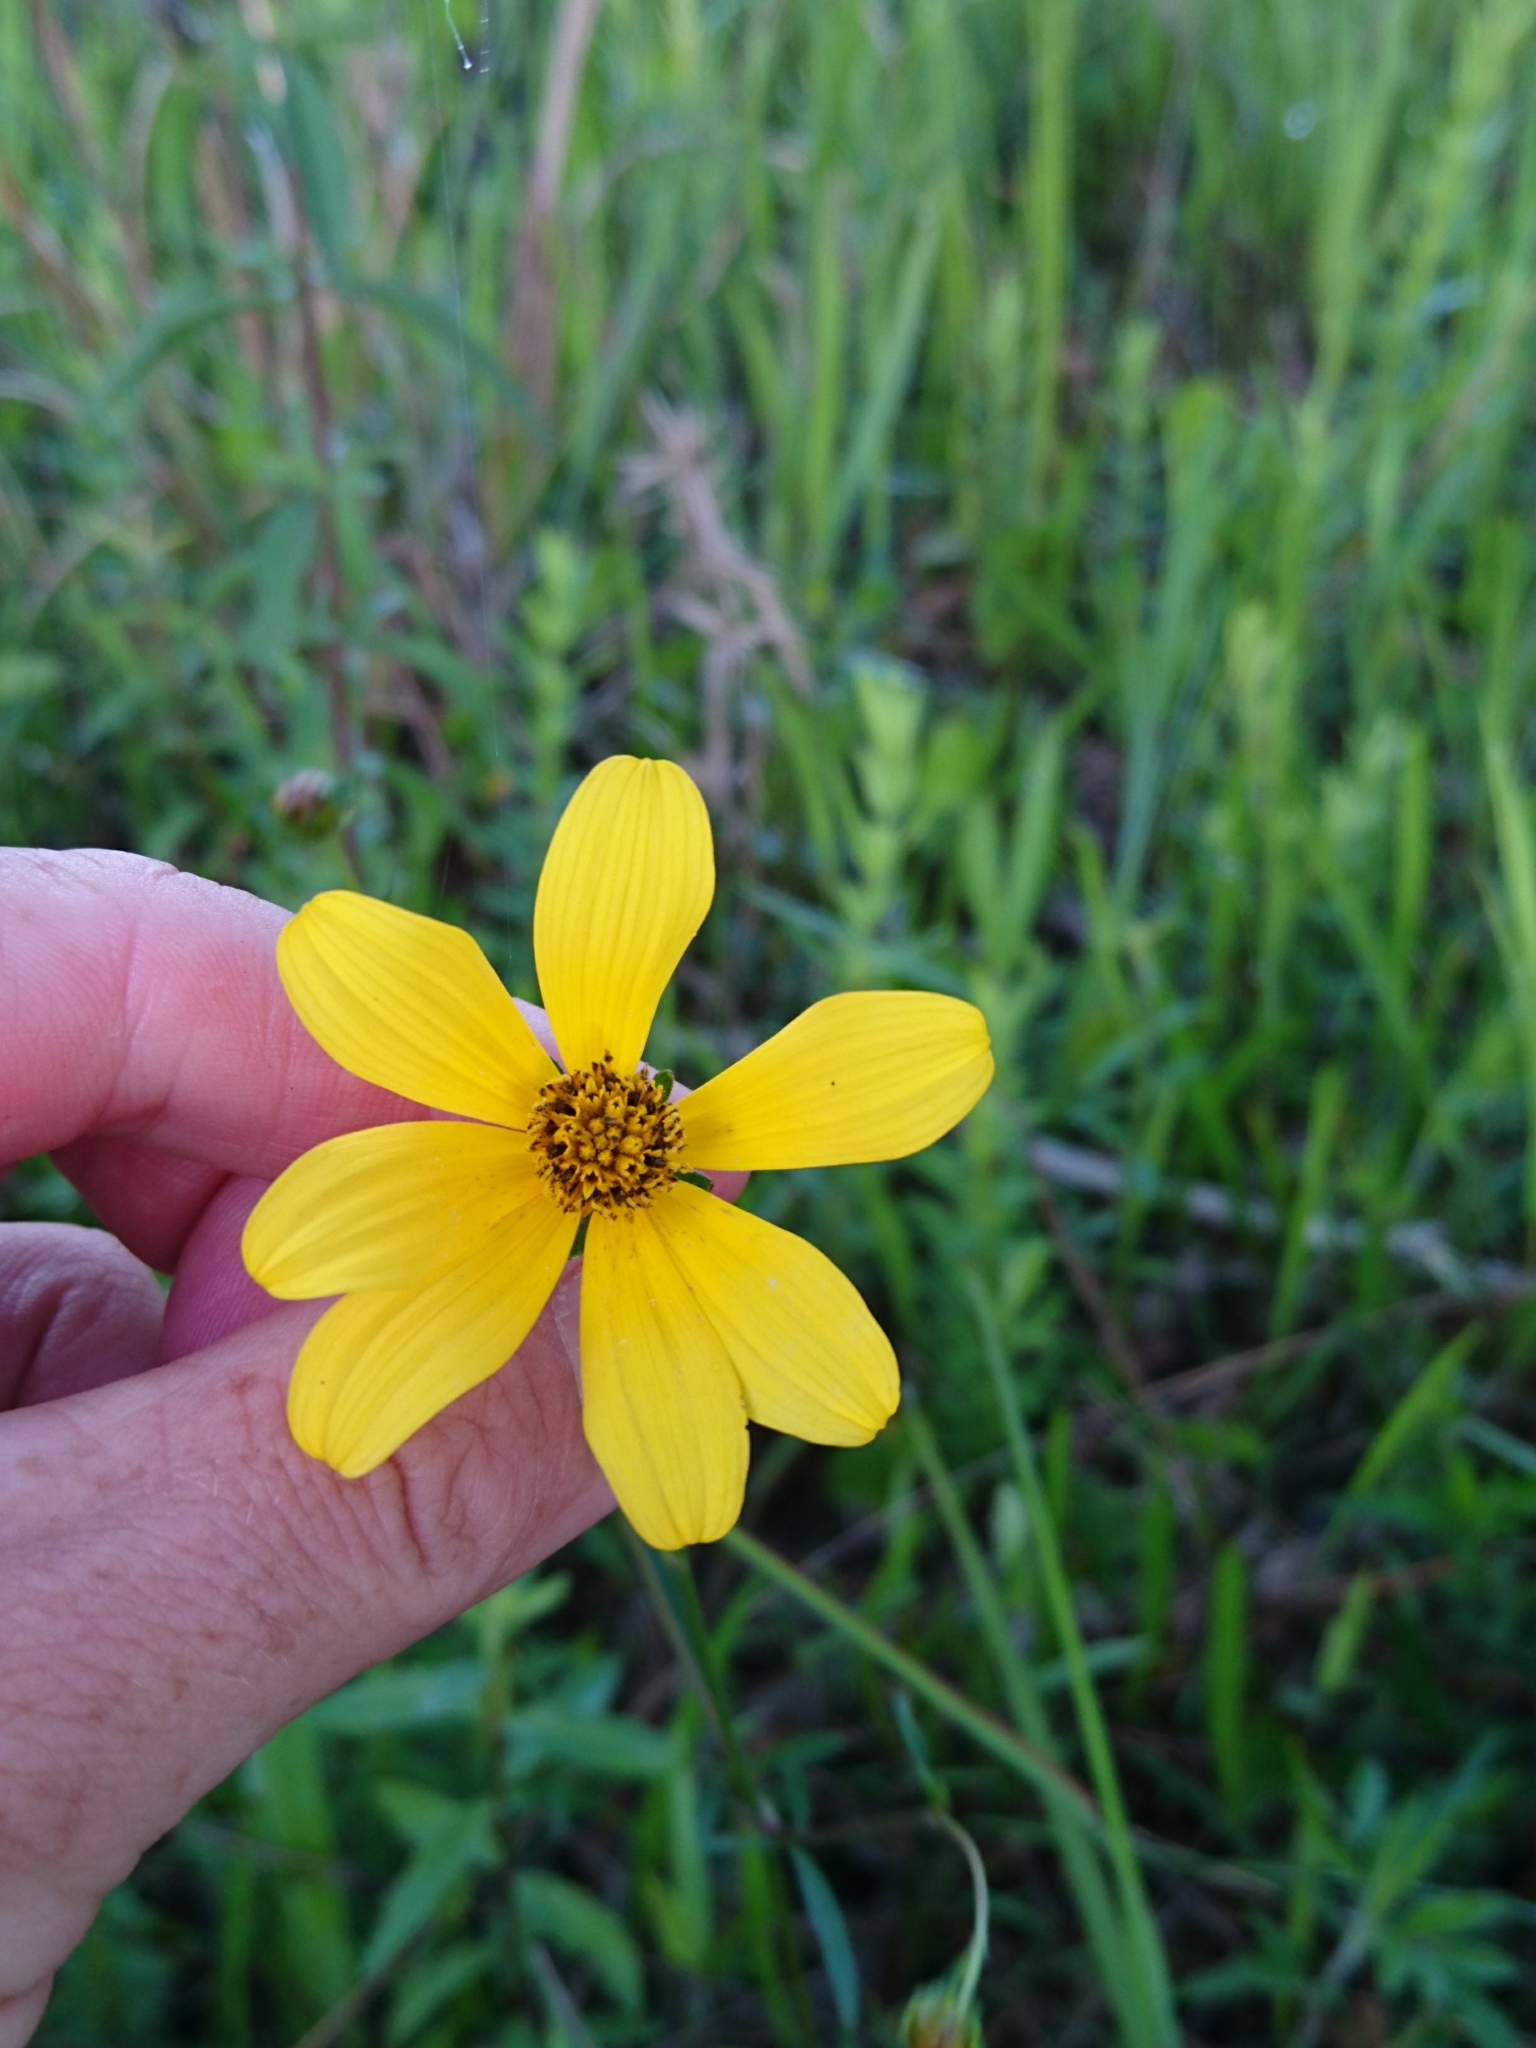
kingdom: Plantae
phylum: Tracheophyta
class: Magnoliopsida
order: Asterales
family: Asteraceae
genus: Bidens
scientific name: Bidens mitis
